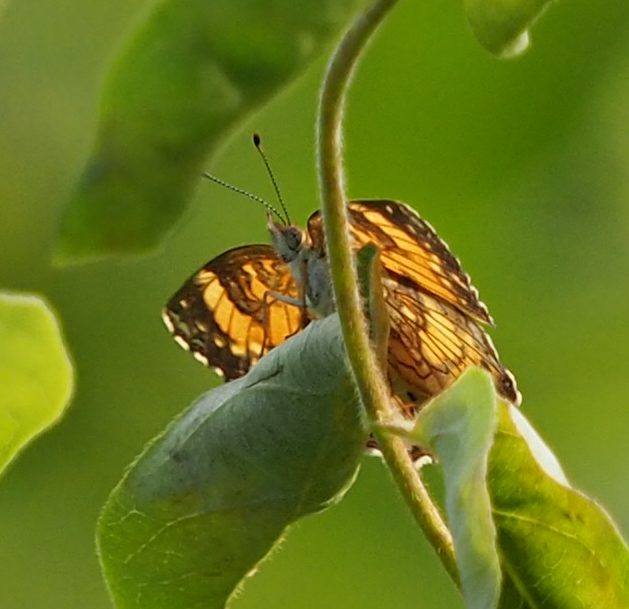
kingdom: Animalia
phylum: Arthropoda
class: Insecta
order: Lepidoptera
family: Nymphalidae
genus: Chlosyne
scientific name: Chlosyne nycteis
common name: Silvery checkerspot
